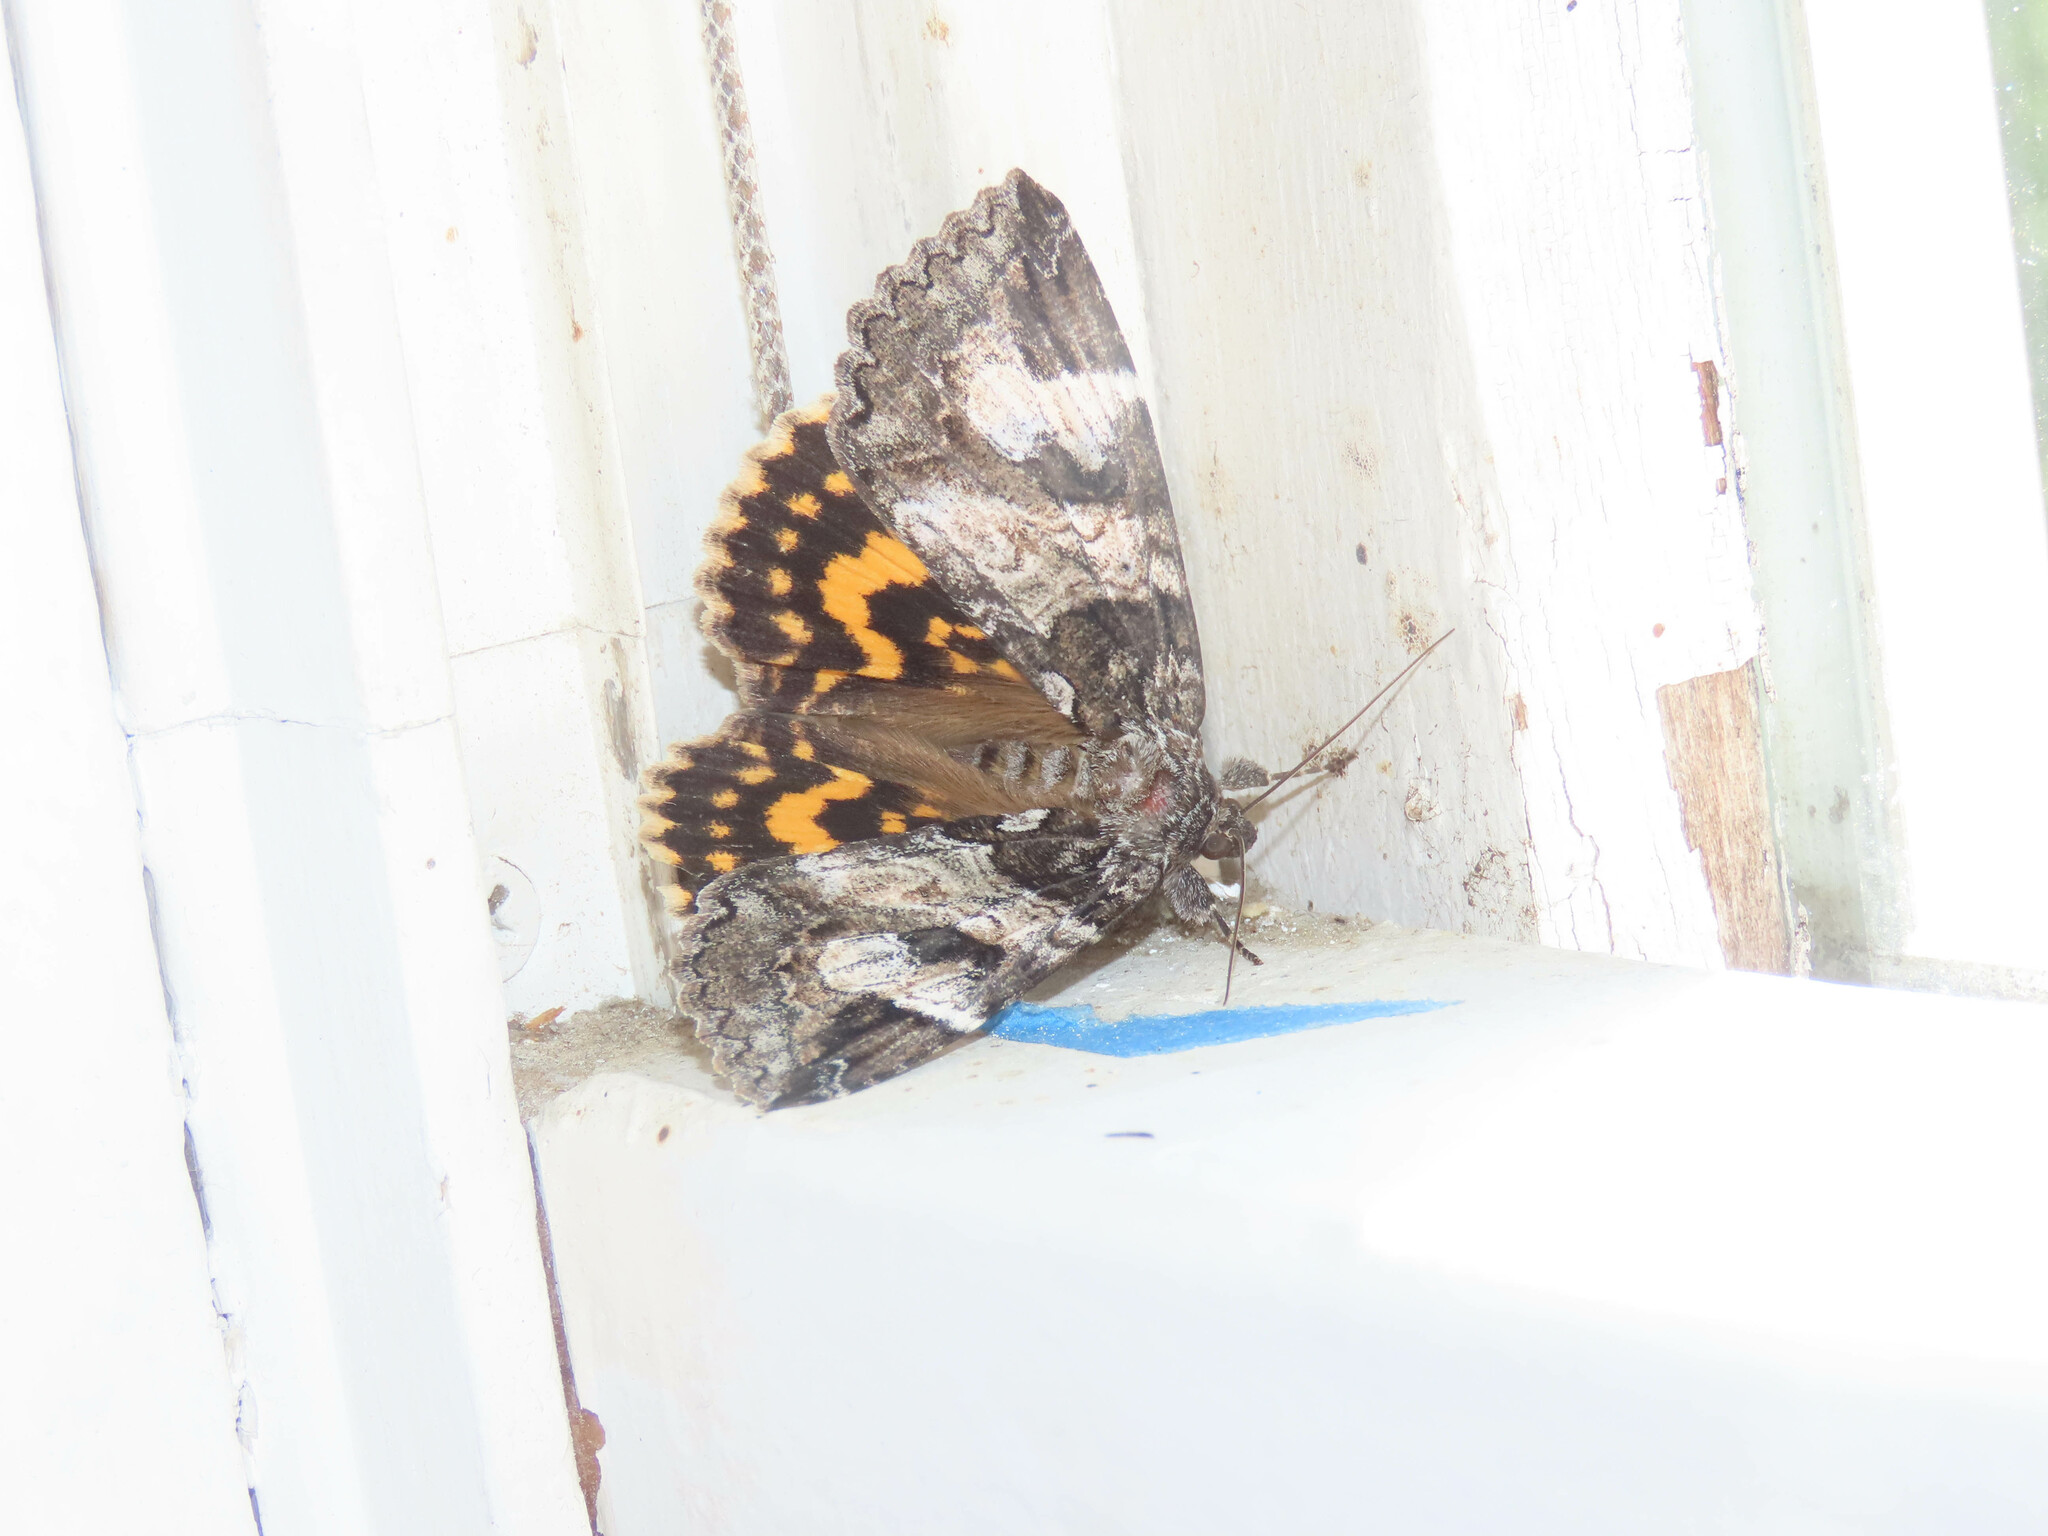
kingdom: Animalia
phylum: Arthropoda
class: Insecta
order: Lepidoptera
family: Erebidae
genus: Euparthenos
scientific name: Euparthenos nubilis
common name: Locust underwing
